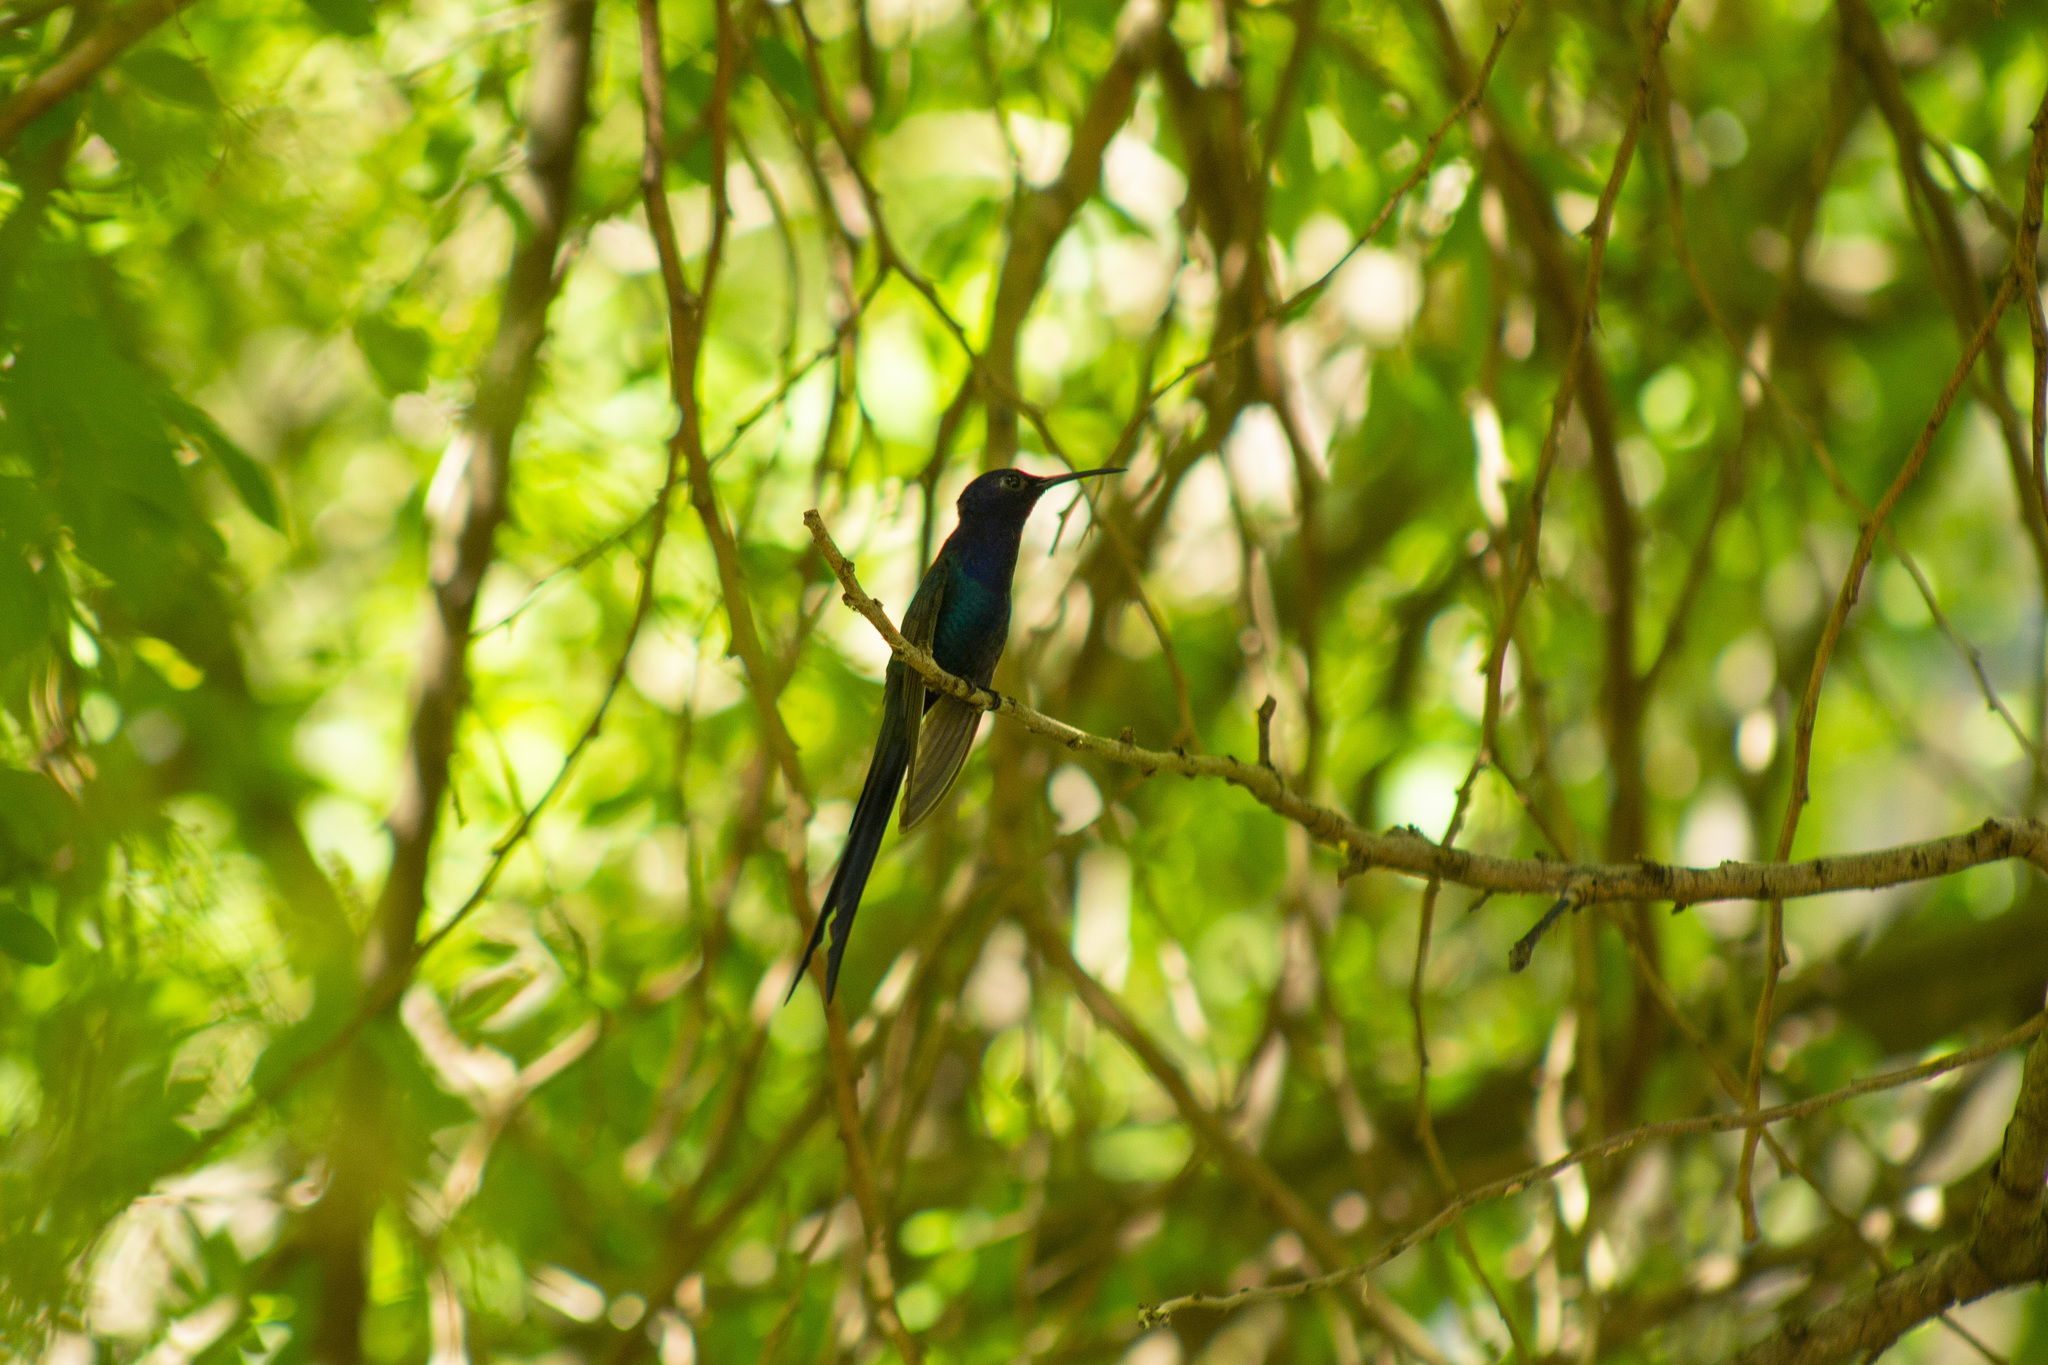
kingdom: Animalia
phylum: Chordata
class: Aves
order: Apodiformes
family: Trochilidae
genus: Eupetomena
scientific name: Eupetomena macroura
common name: Swallow-tailed hummingbird
